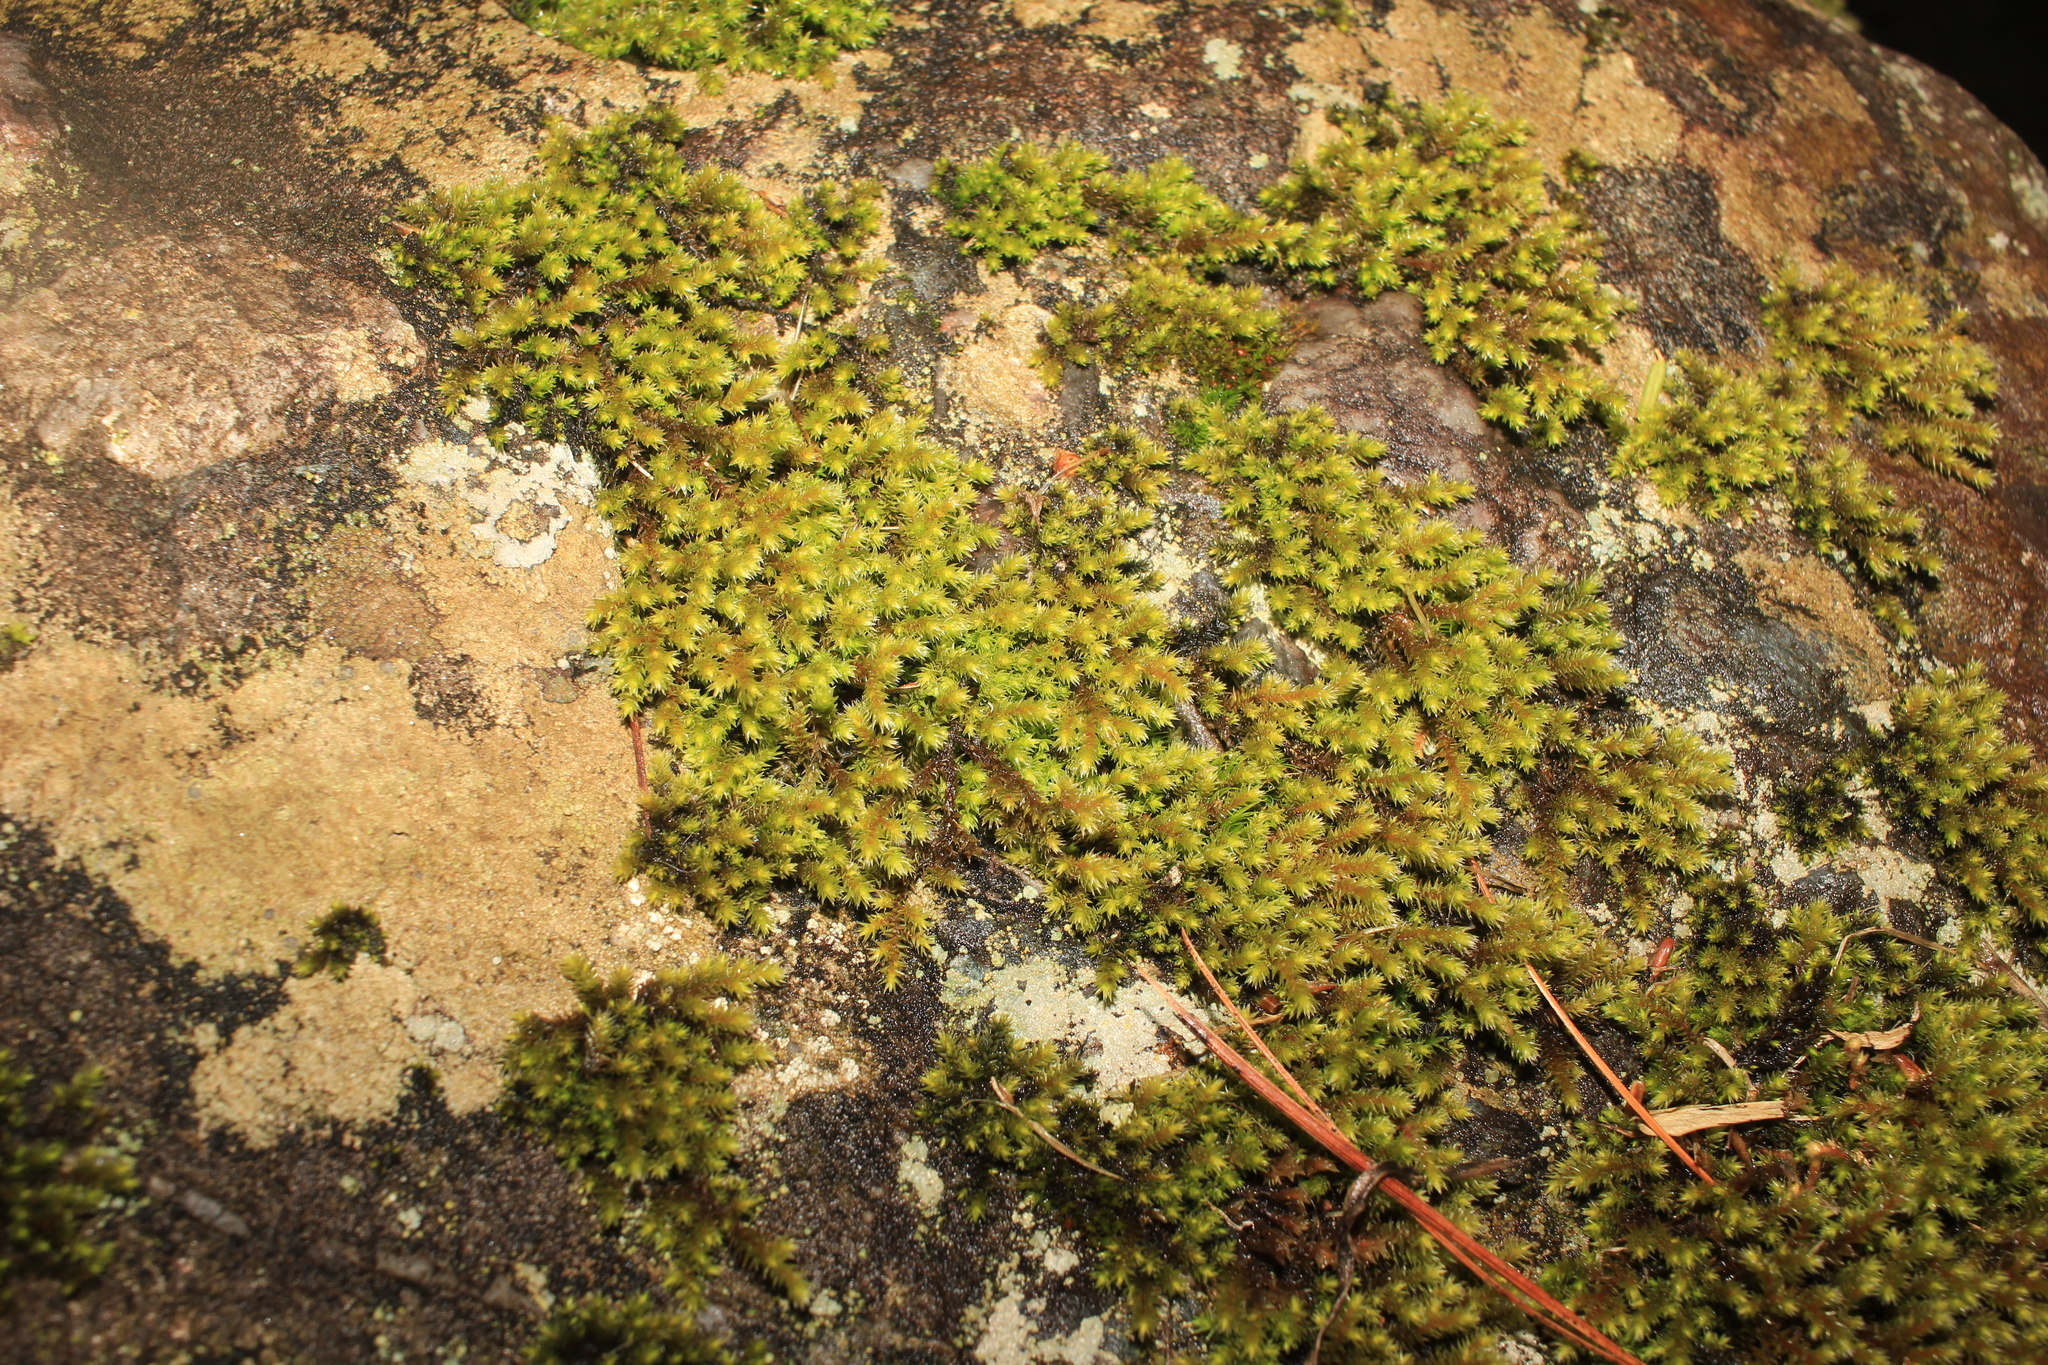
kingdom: Plantae
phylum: Bryophyta
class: Bryopsida
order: Hedwigiales
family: Hedwigiaceae
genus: Hedwigia
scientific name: Hedwigia ciliata
